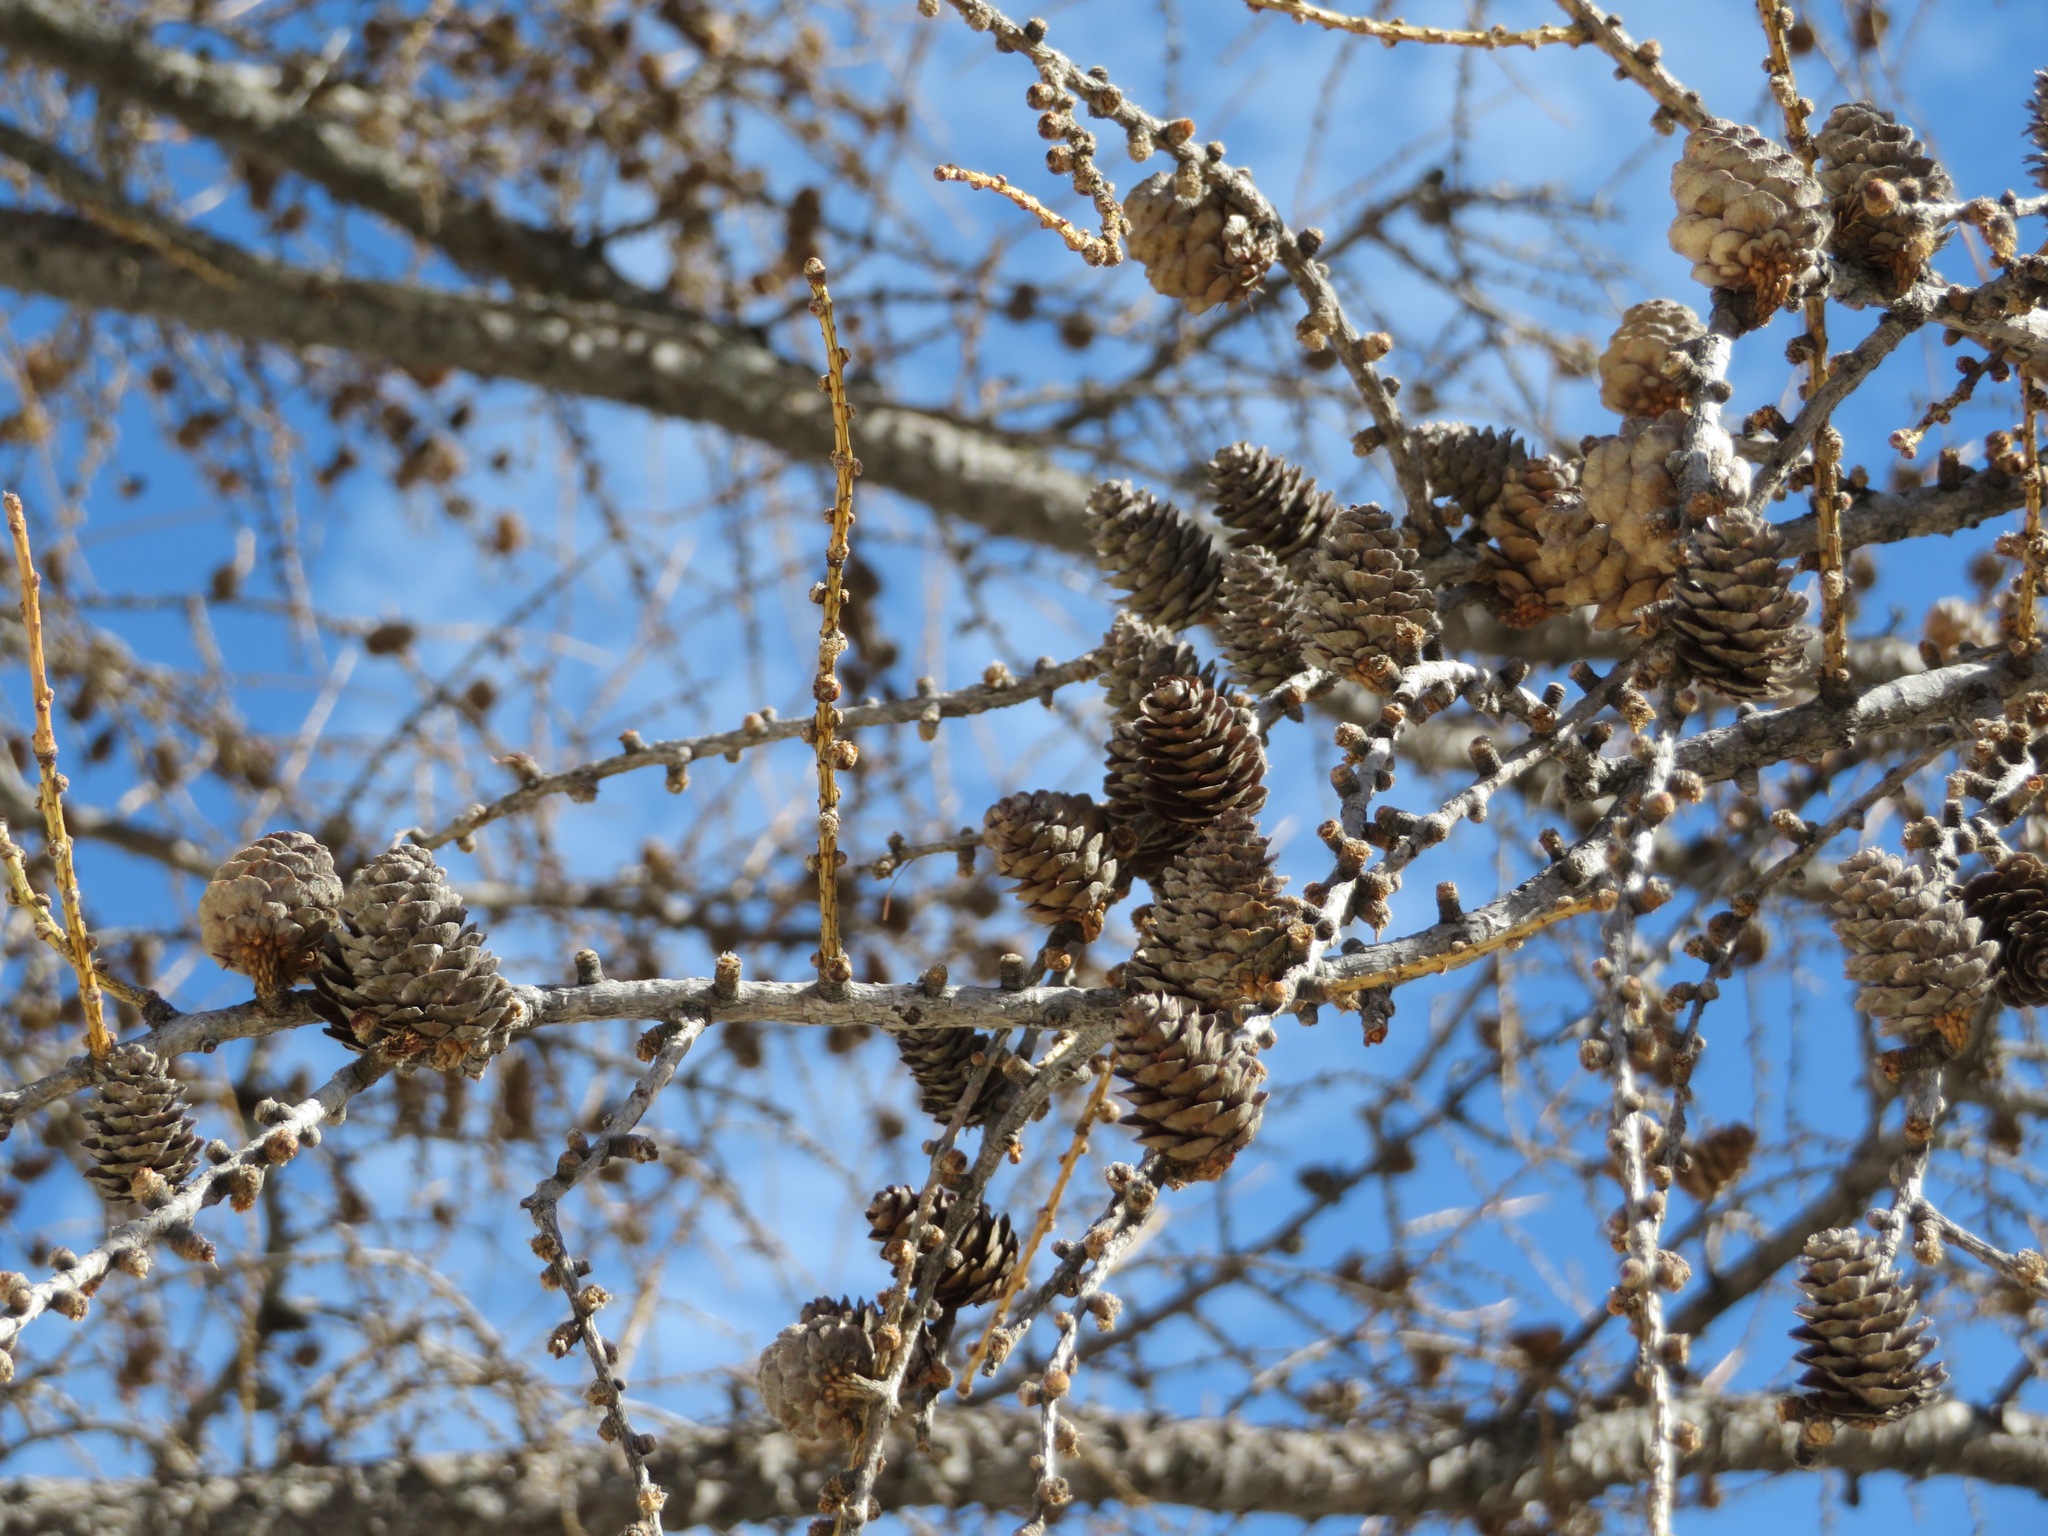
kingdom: Plantae
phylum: Tracheophyta
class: Pinopsida
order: Pinales
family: Pinaceae
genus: Larix
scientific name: Larix decidua
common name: European larch
